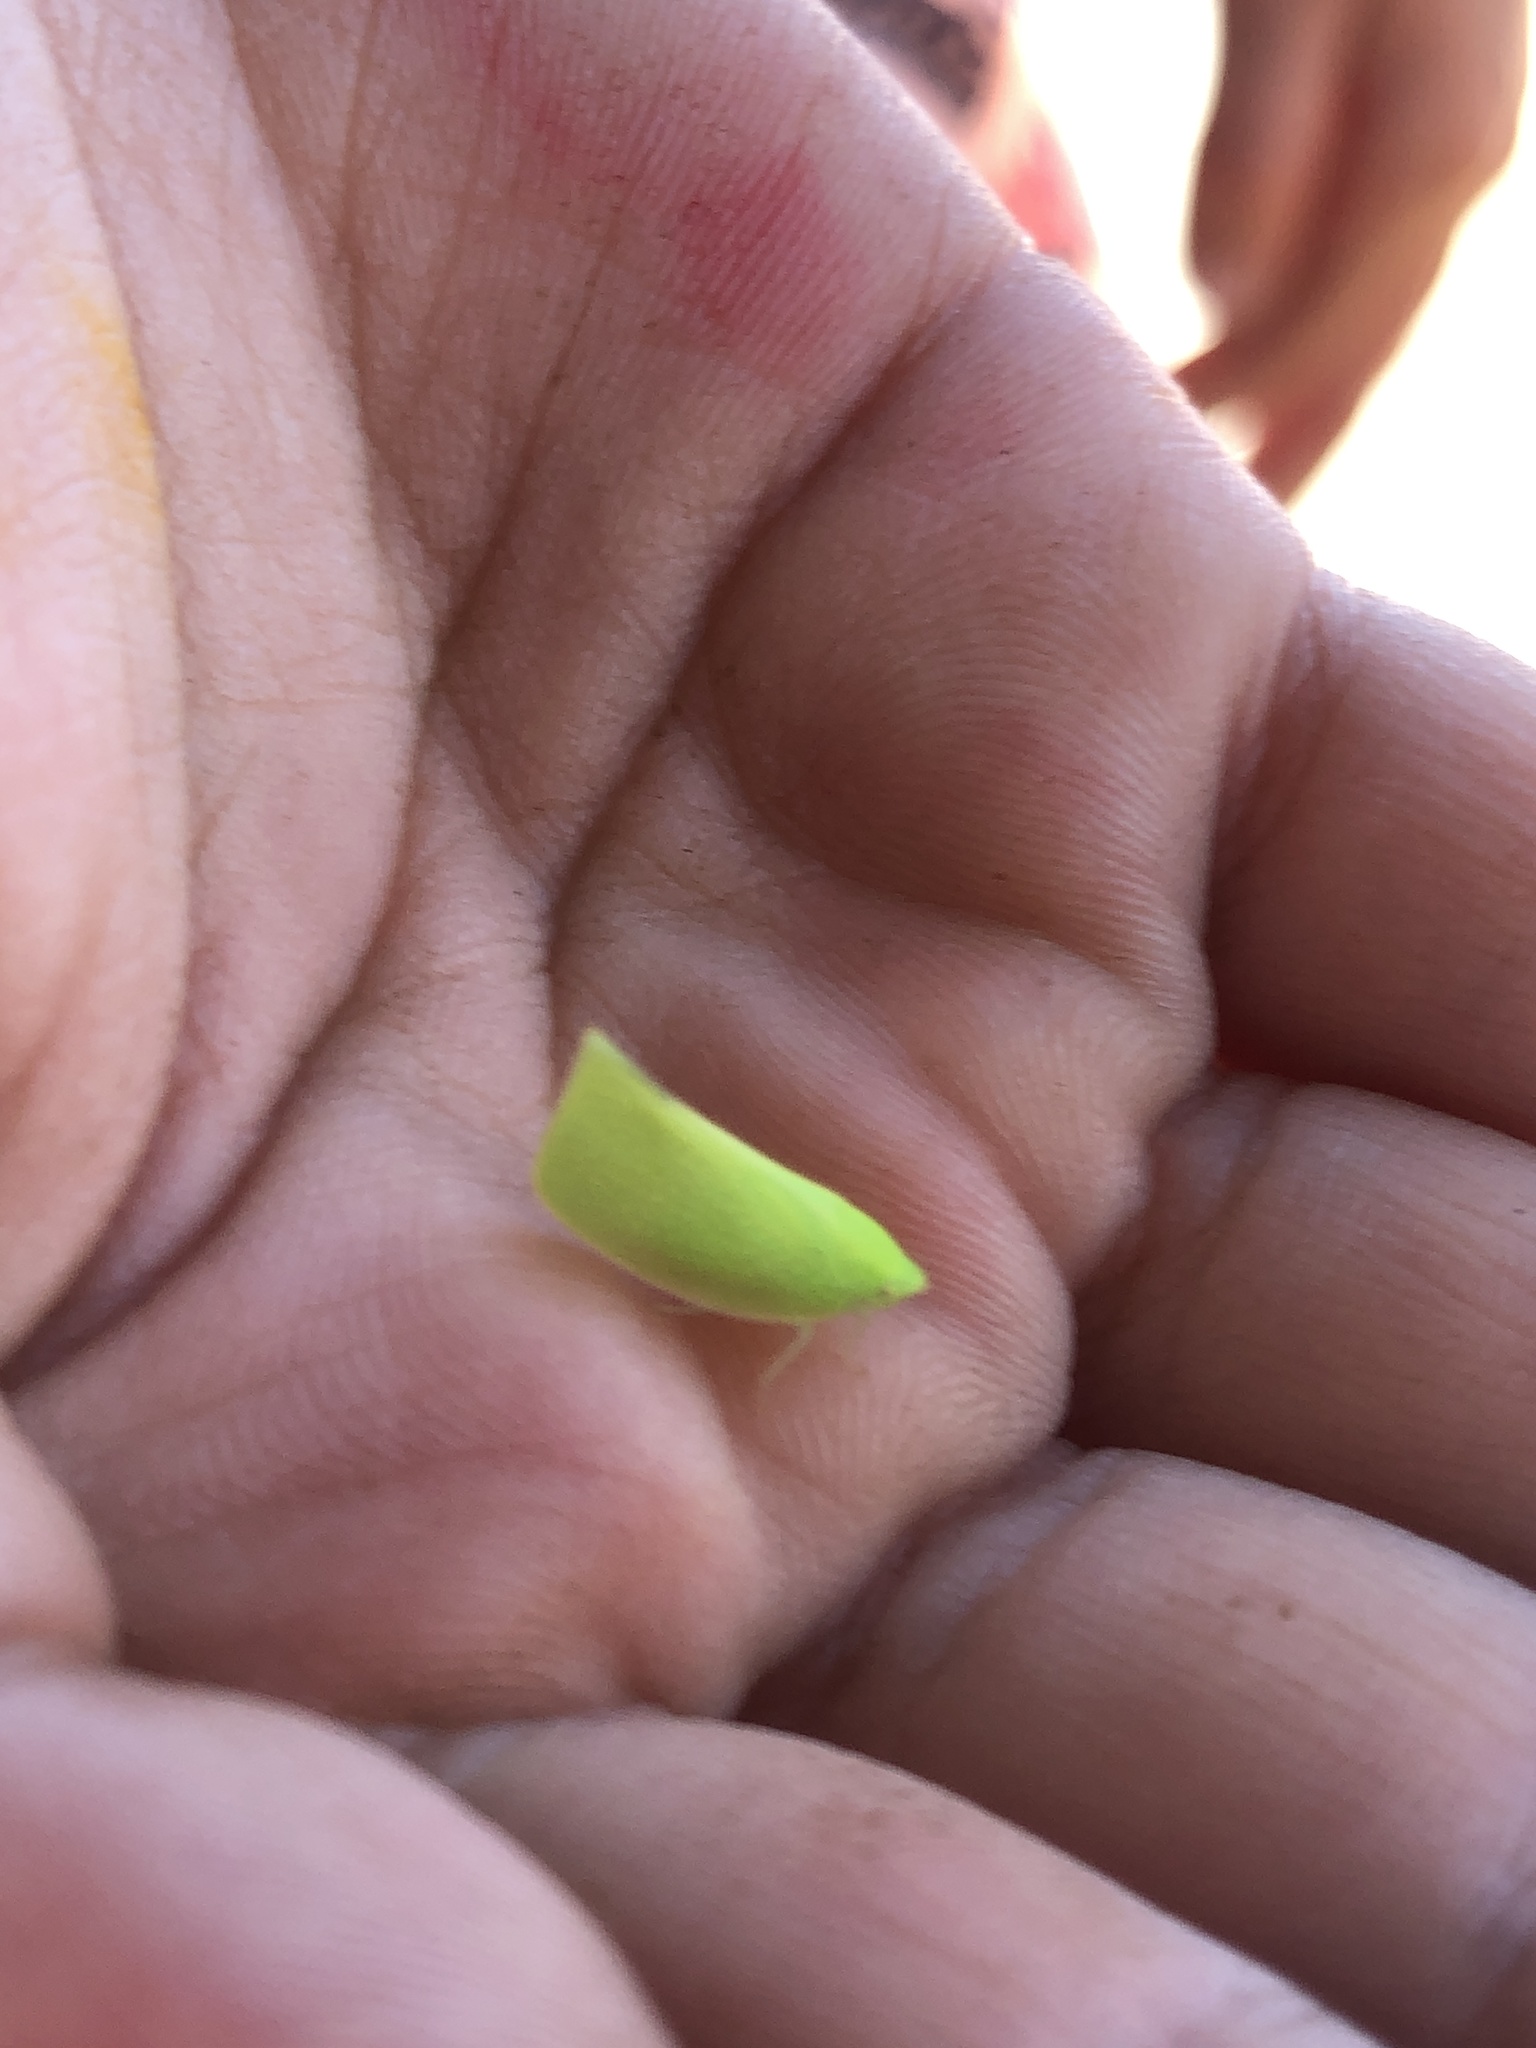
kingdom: Animalia
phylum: Arthropoda
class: Insecta
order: Hemiptera
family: Flatidae
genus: Siphanta
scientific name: Siphanta acuta
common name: Torpedo bug
